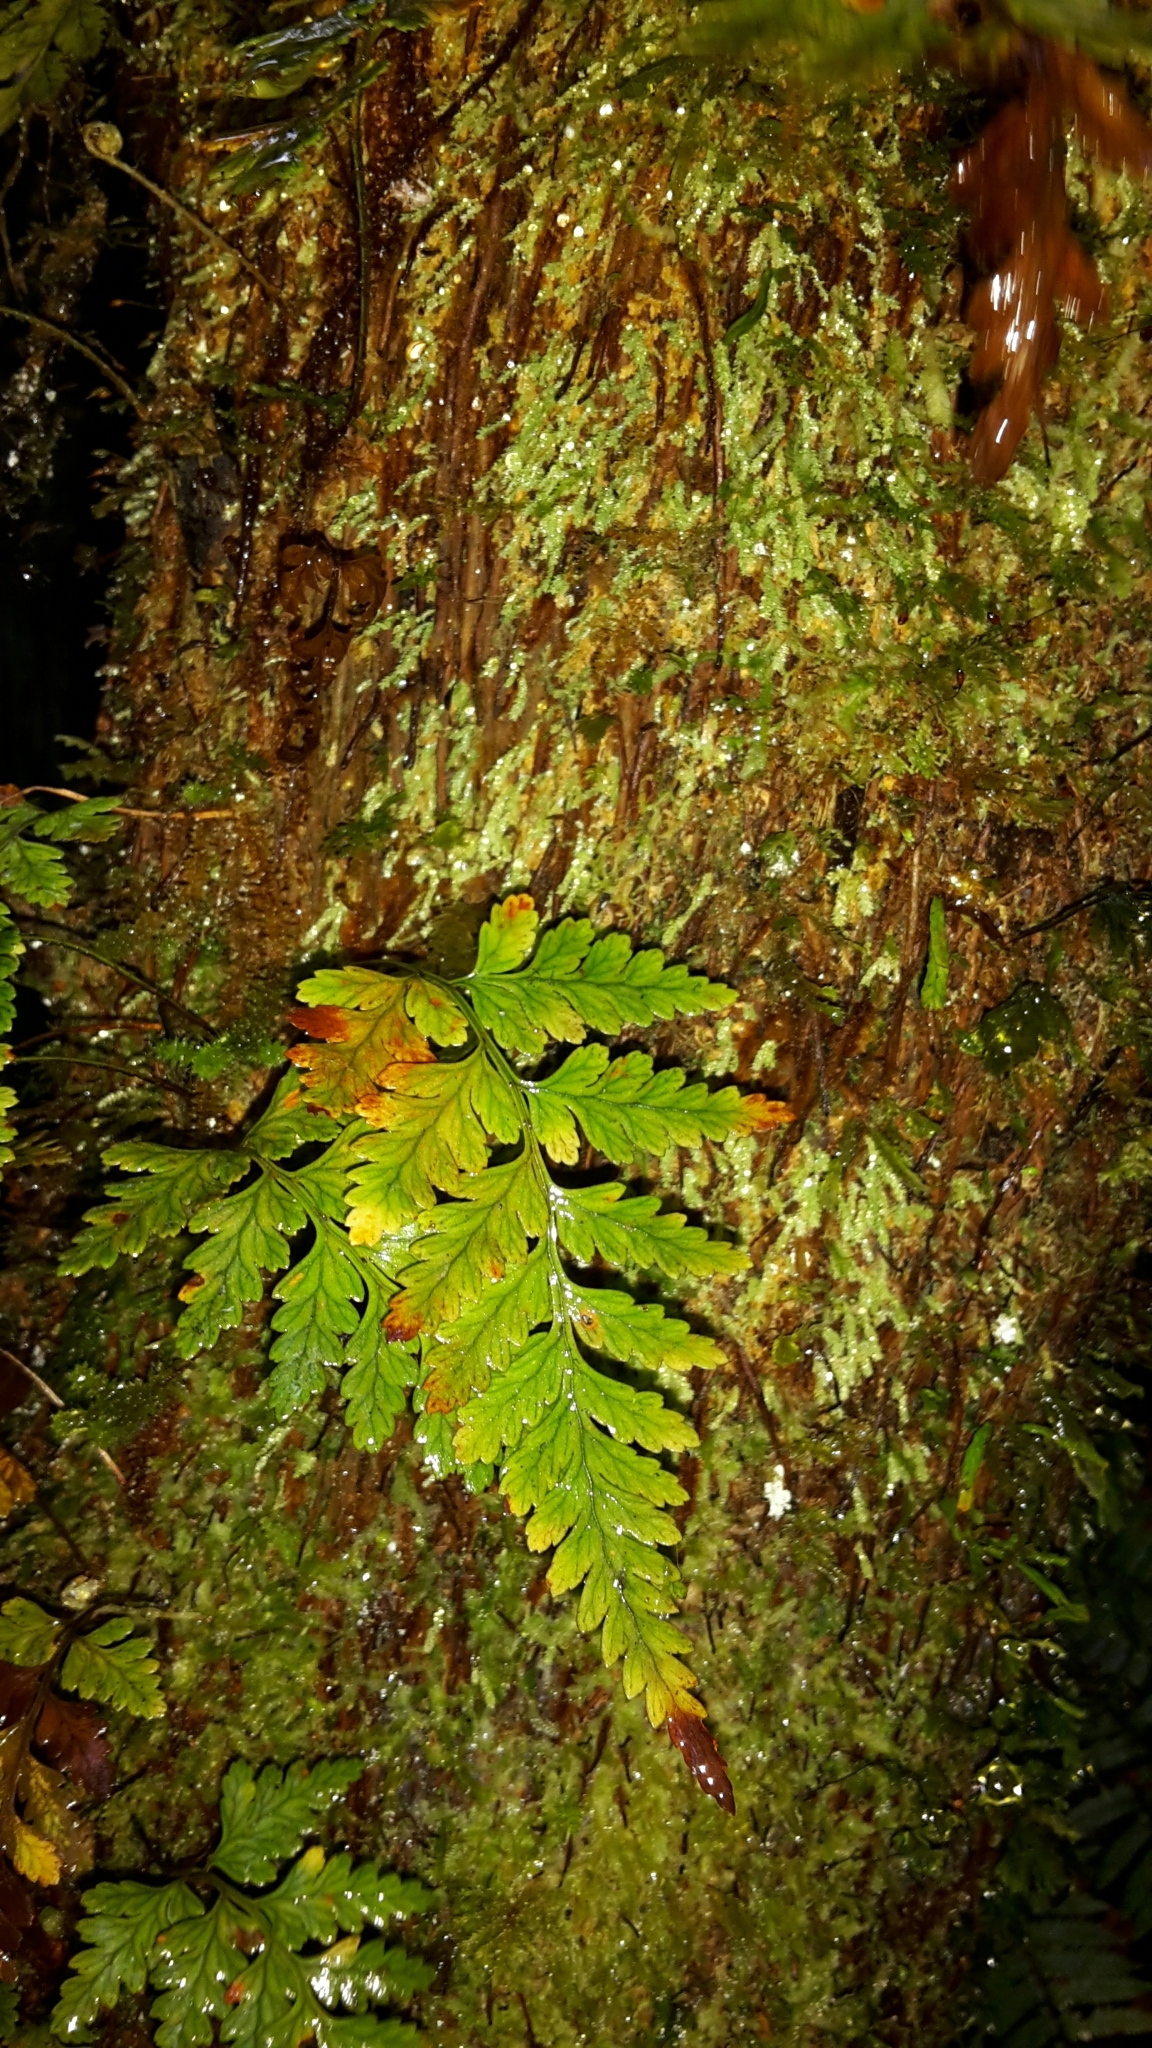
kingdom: Plantae
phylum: Tracheophyta
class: Polypodiopsida
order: Polypodiales
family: Dryopteridaceae
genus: Rumohra
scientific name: Rumohra adiantiformis
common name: Leather fern
